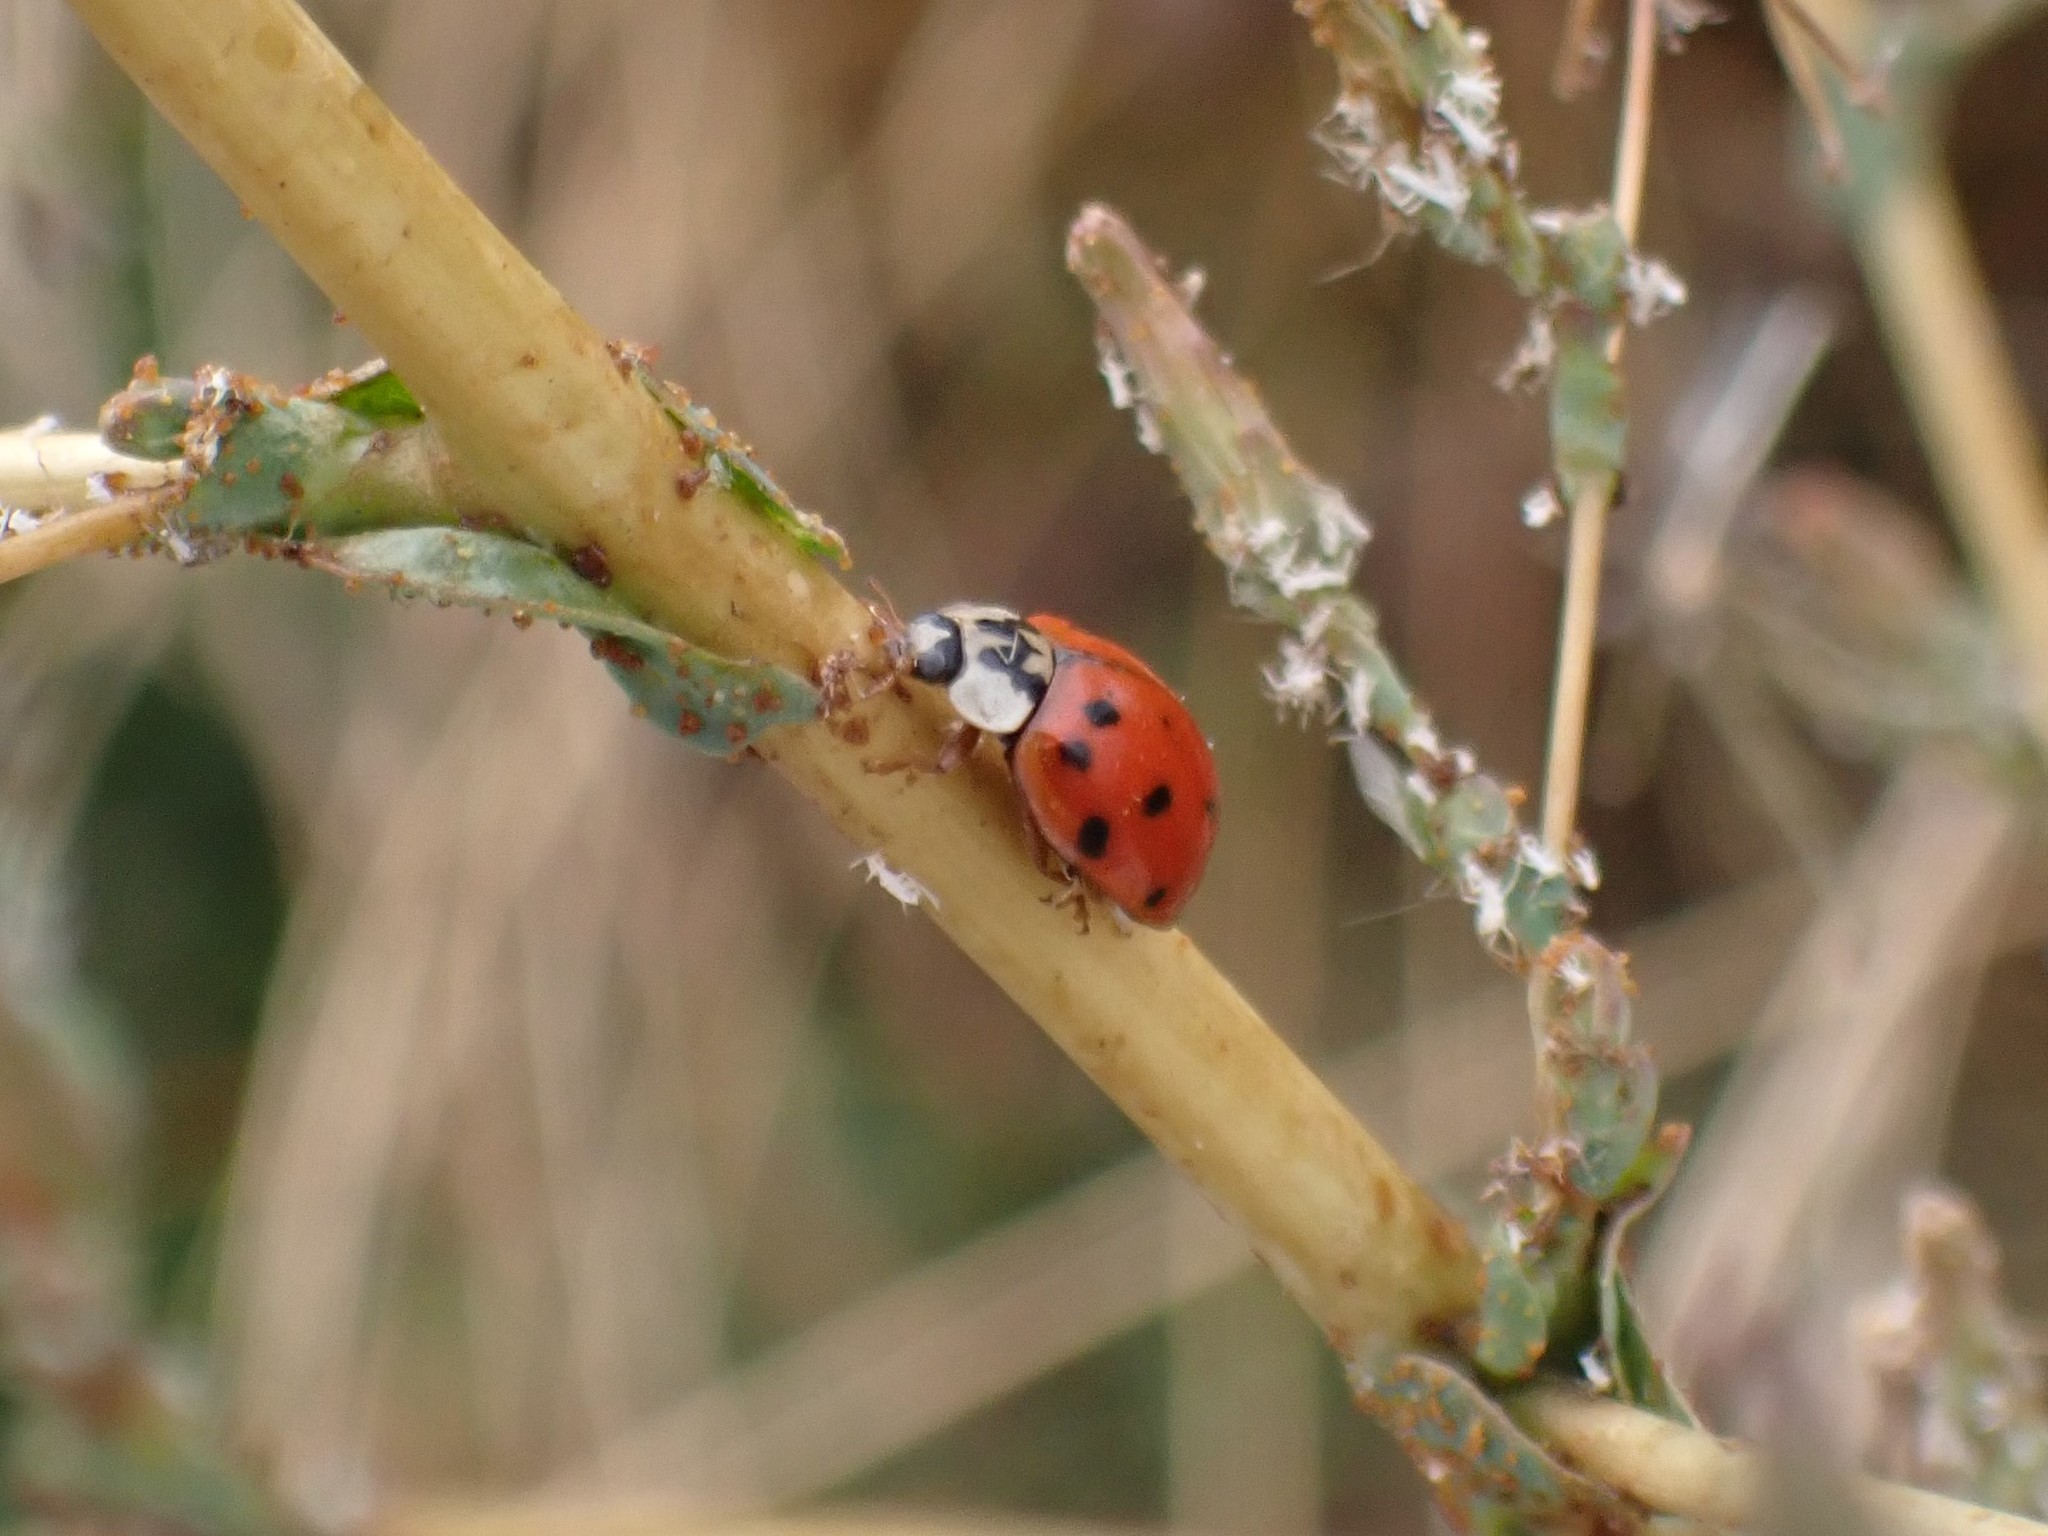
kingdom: Animalia
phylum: Arthropoda
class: Insecta
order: Coleoptera
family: Coccinellidae
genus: Harmonia
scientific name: Harmonia axyridis
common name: Harlequin ladybird
